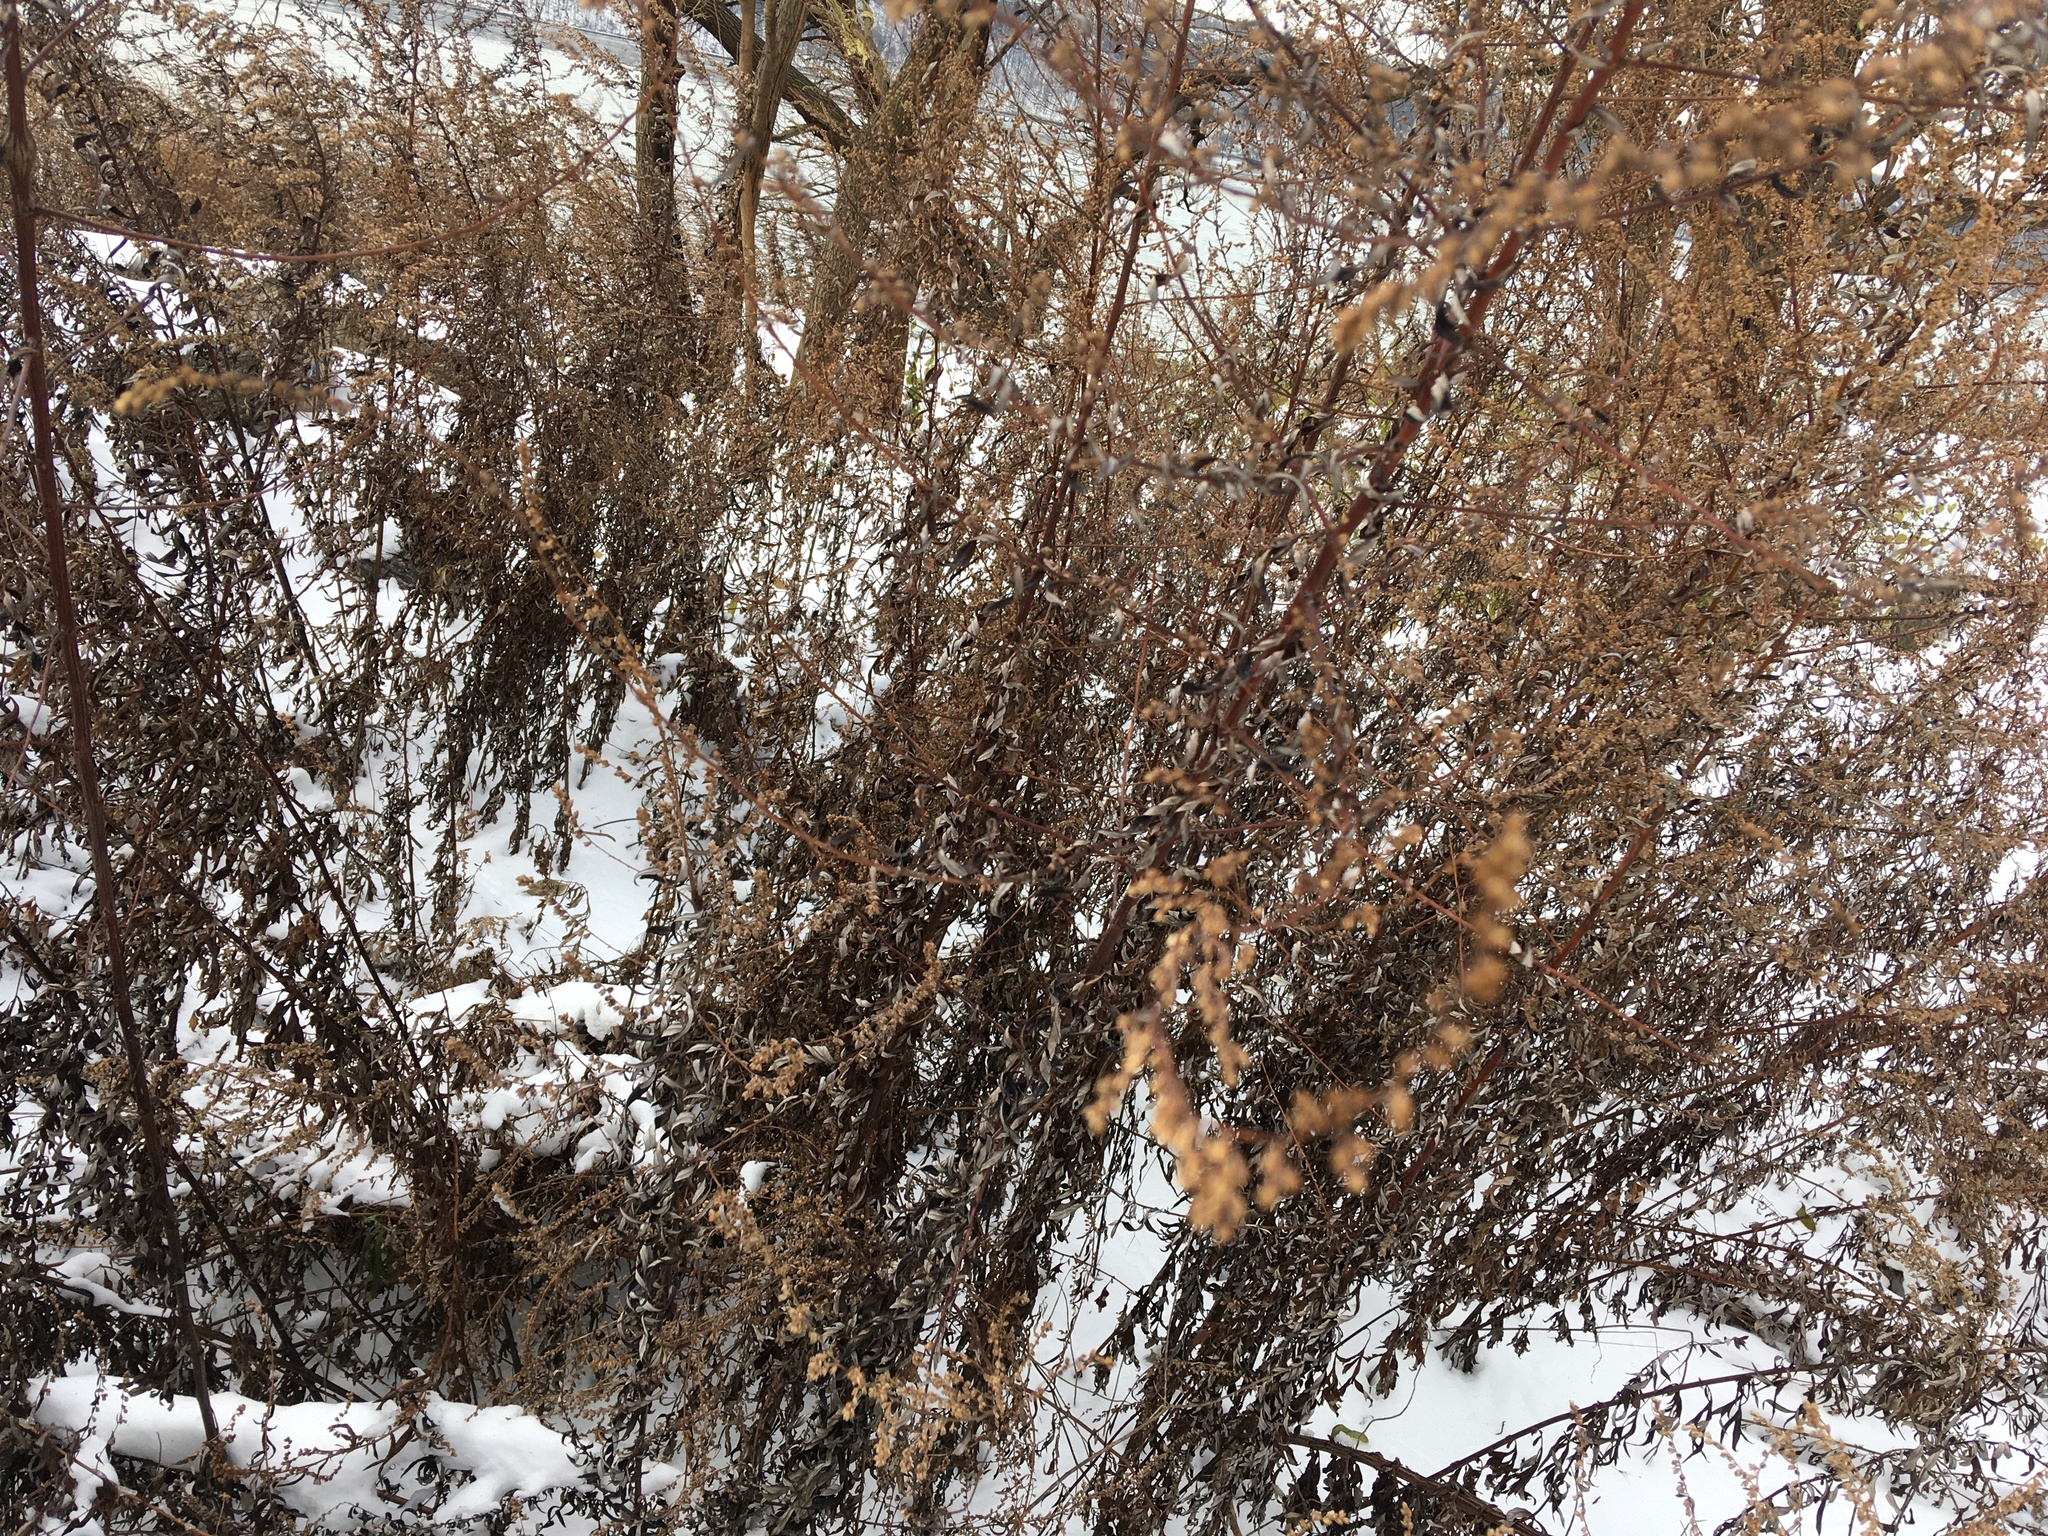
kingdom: Plantae
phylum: Tracheophyta
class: Magnoliopsida
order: Asterales
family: Asteraceae
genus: Artemisia
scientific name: Artemisia vulgaris
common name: Mugwort
